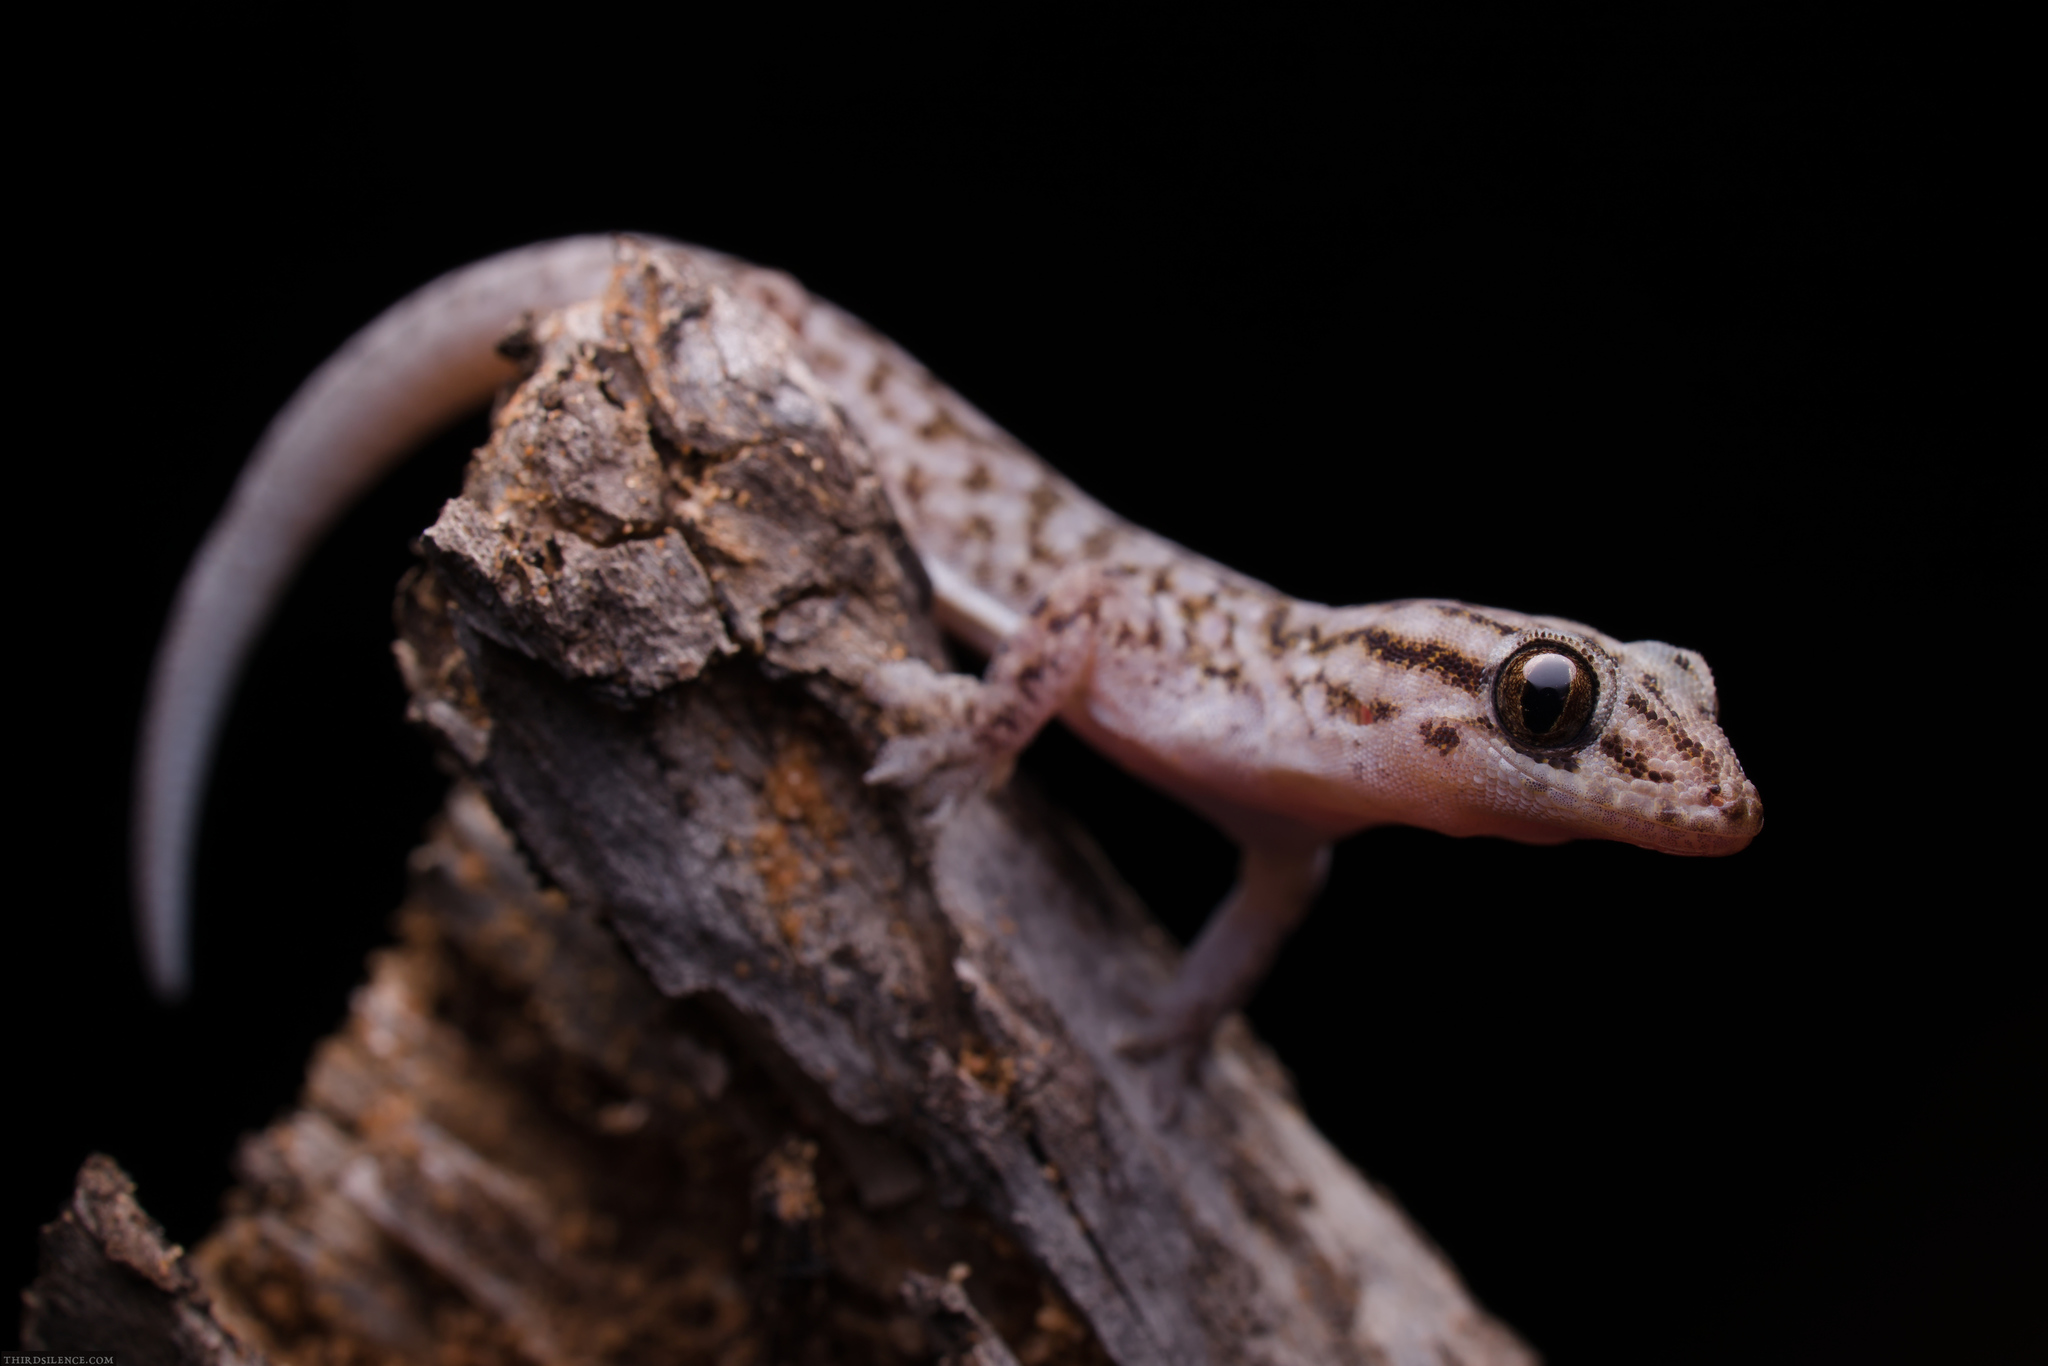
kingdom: Animalia
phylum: Chordata
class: Squamata
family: Gekkonidae
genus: Gehyra
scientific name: Gehyra versicolor
